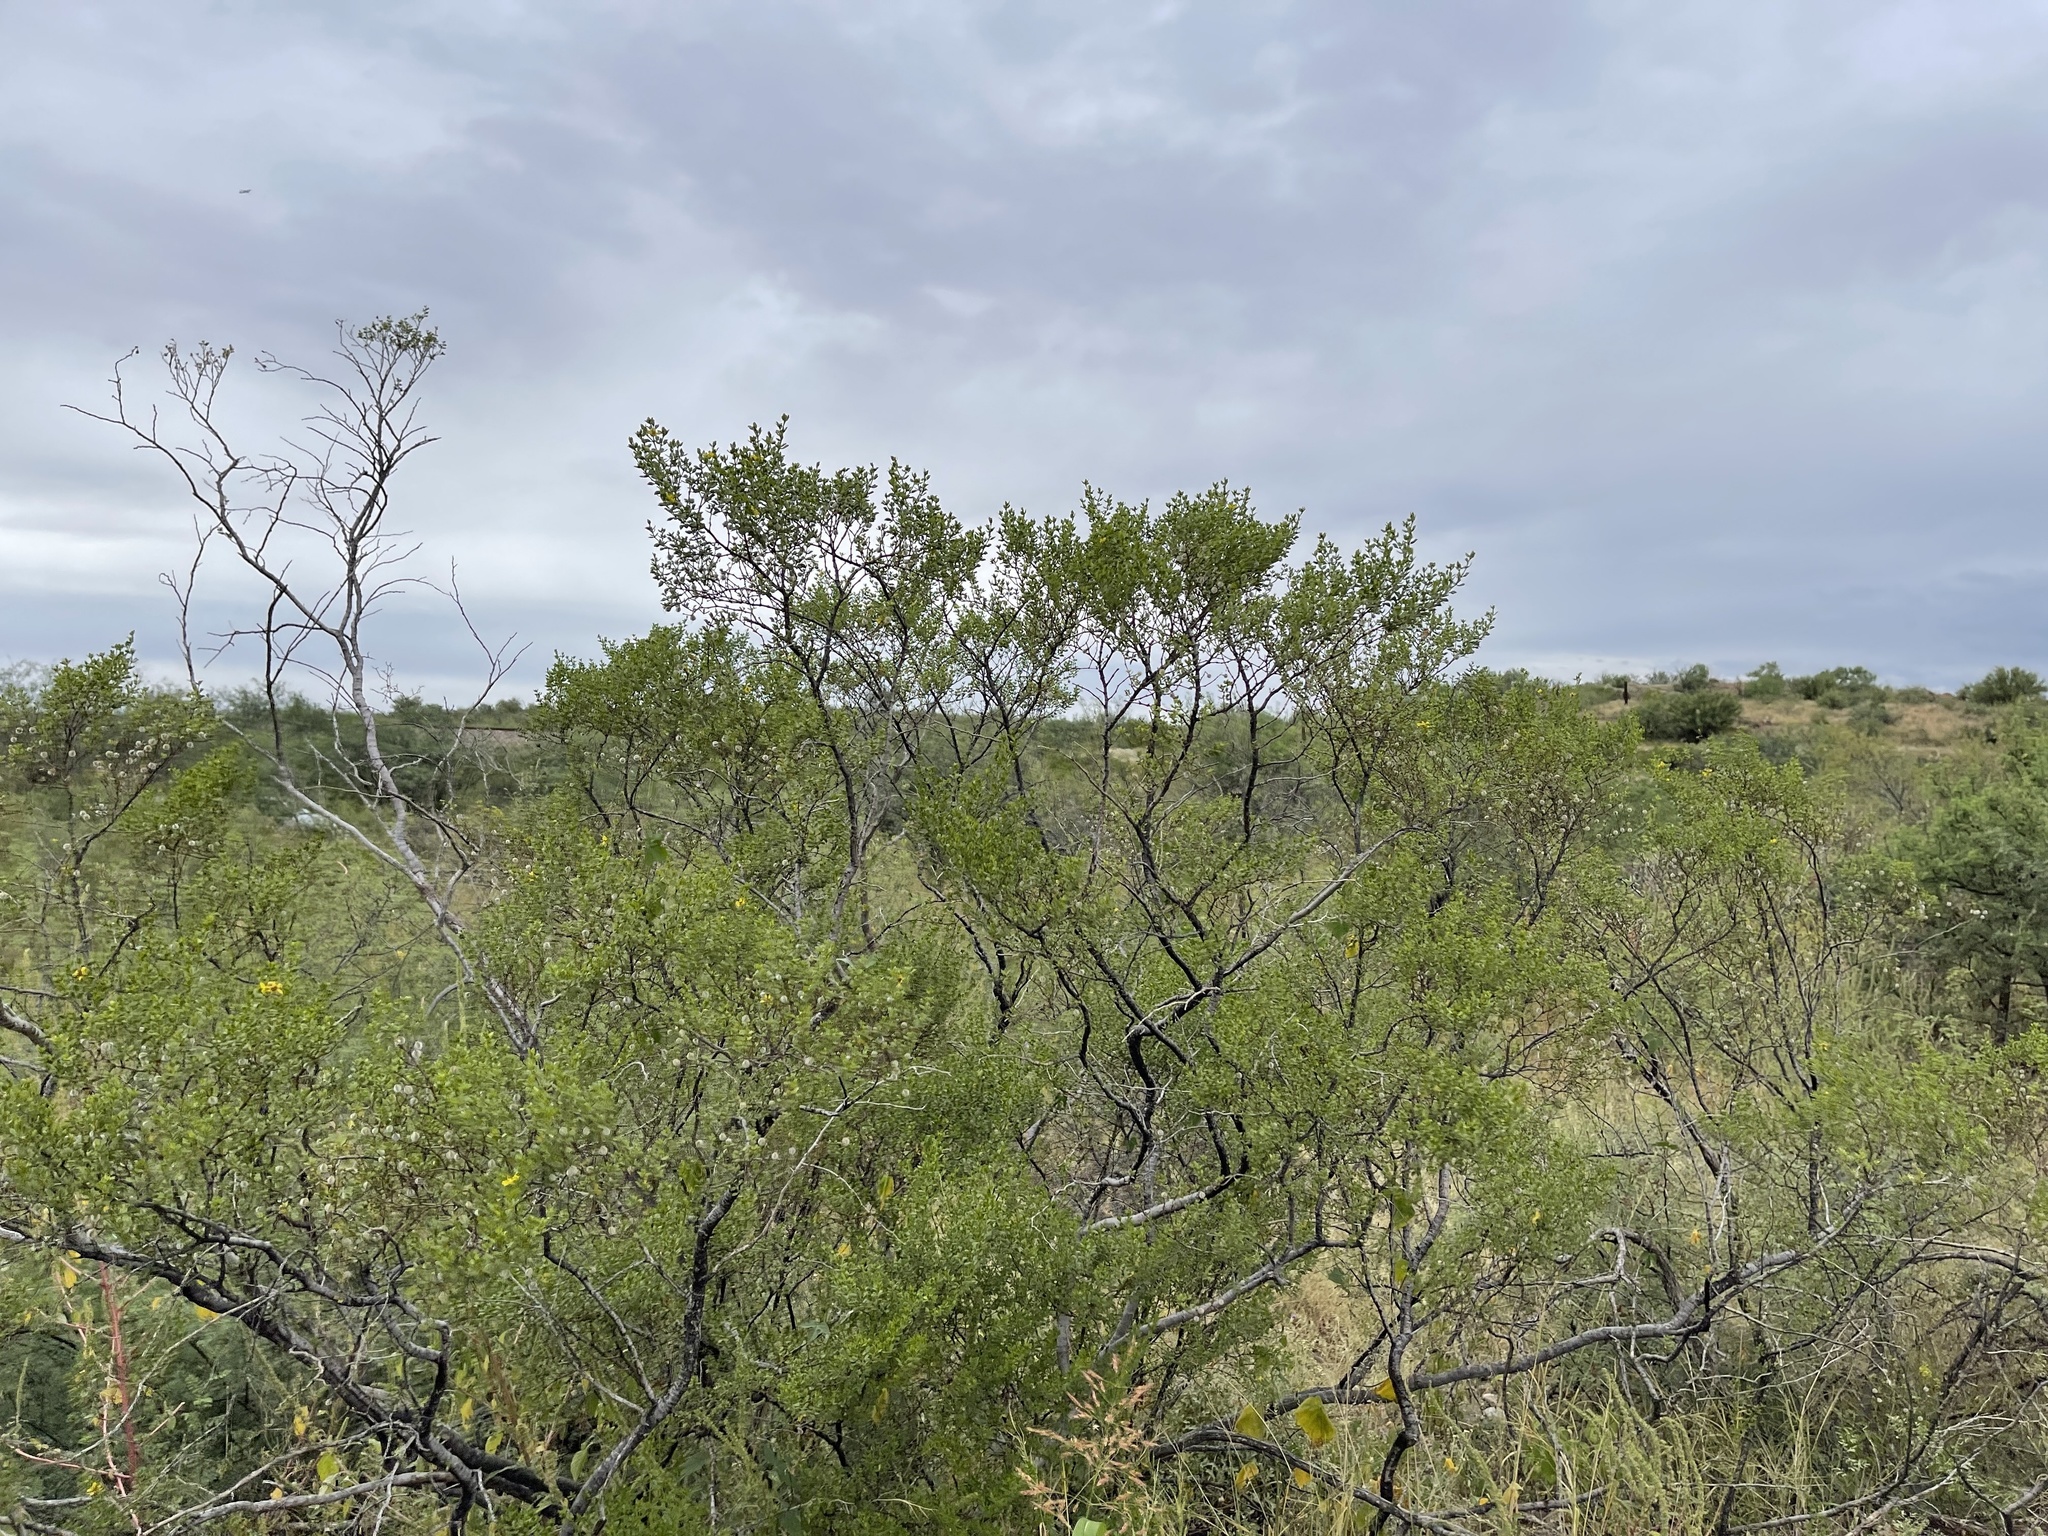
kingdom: Plantae
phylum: Tracheophyta
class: Magnoliopsida
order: Zygophyllales
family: Zygophyllaceae
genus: Larrea
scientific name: Larrea tridentata
